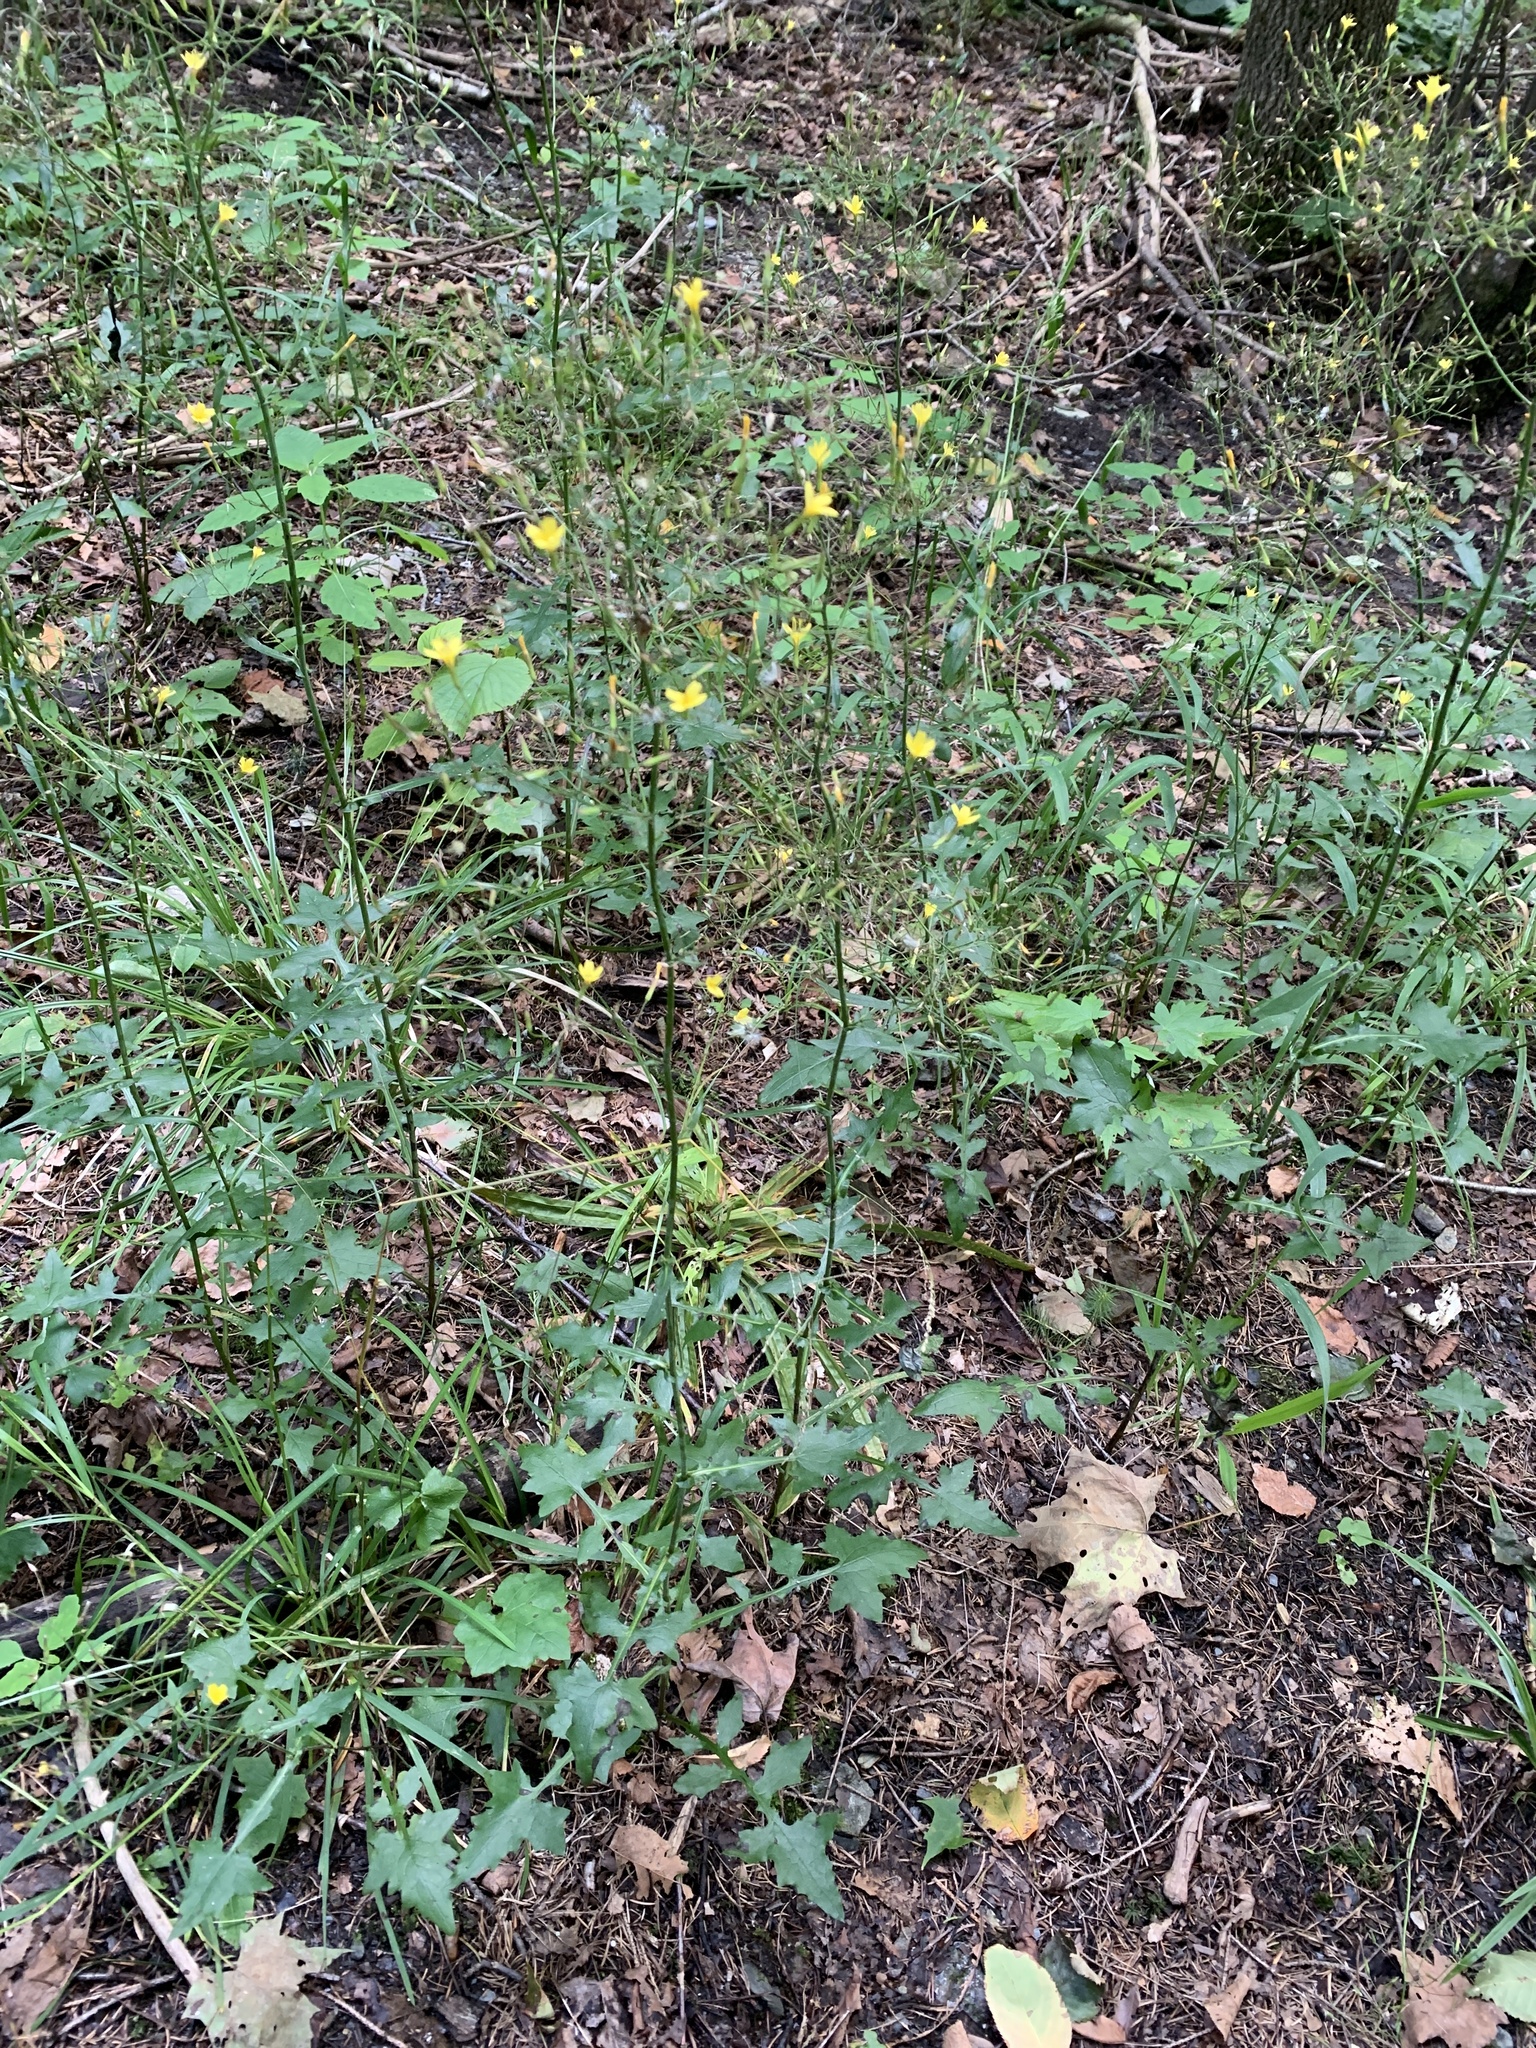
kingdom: Plantae
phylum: Tracheophyta
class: Magnoliopsida
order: Asterales
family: Asteraceae
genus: Mycelis
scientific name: Mycelis muralis
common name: Wall lettuce
